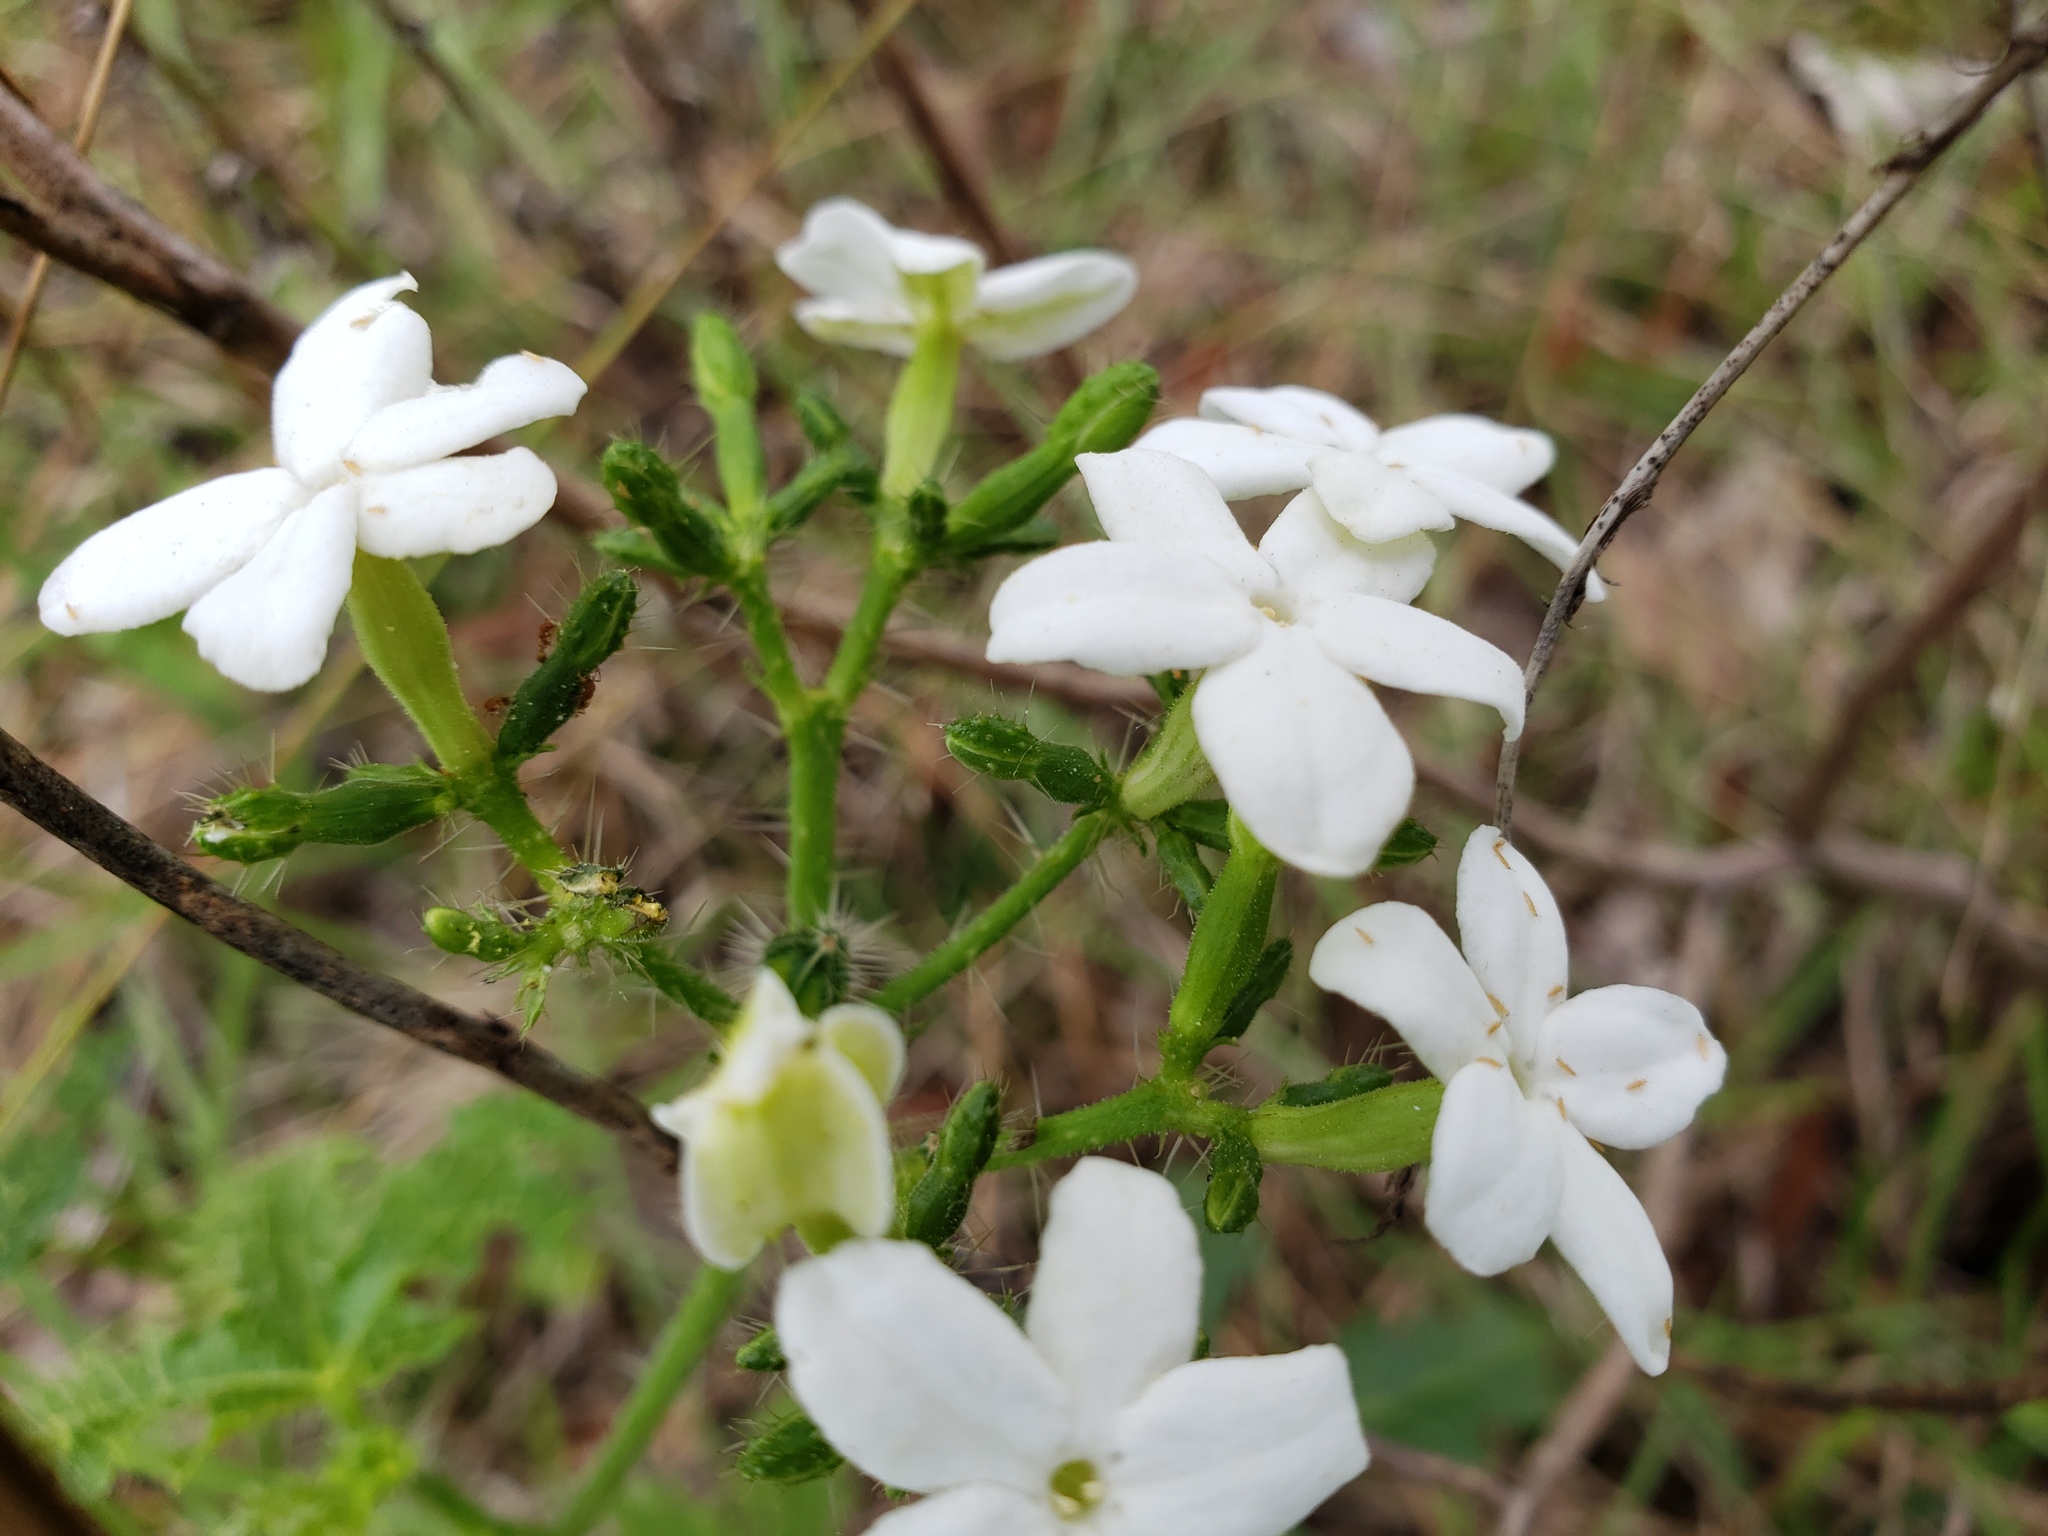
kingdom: Plantae
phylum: Tracheophyta
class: Magnoliopsida
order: Malpighiales
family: Euphorbiaceae
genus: Cnidoscolus
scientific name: Cnidoscolus stimulosus
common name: Bull-nettle
